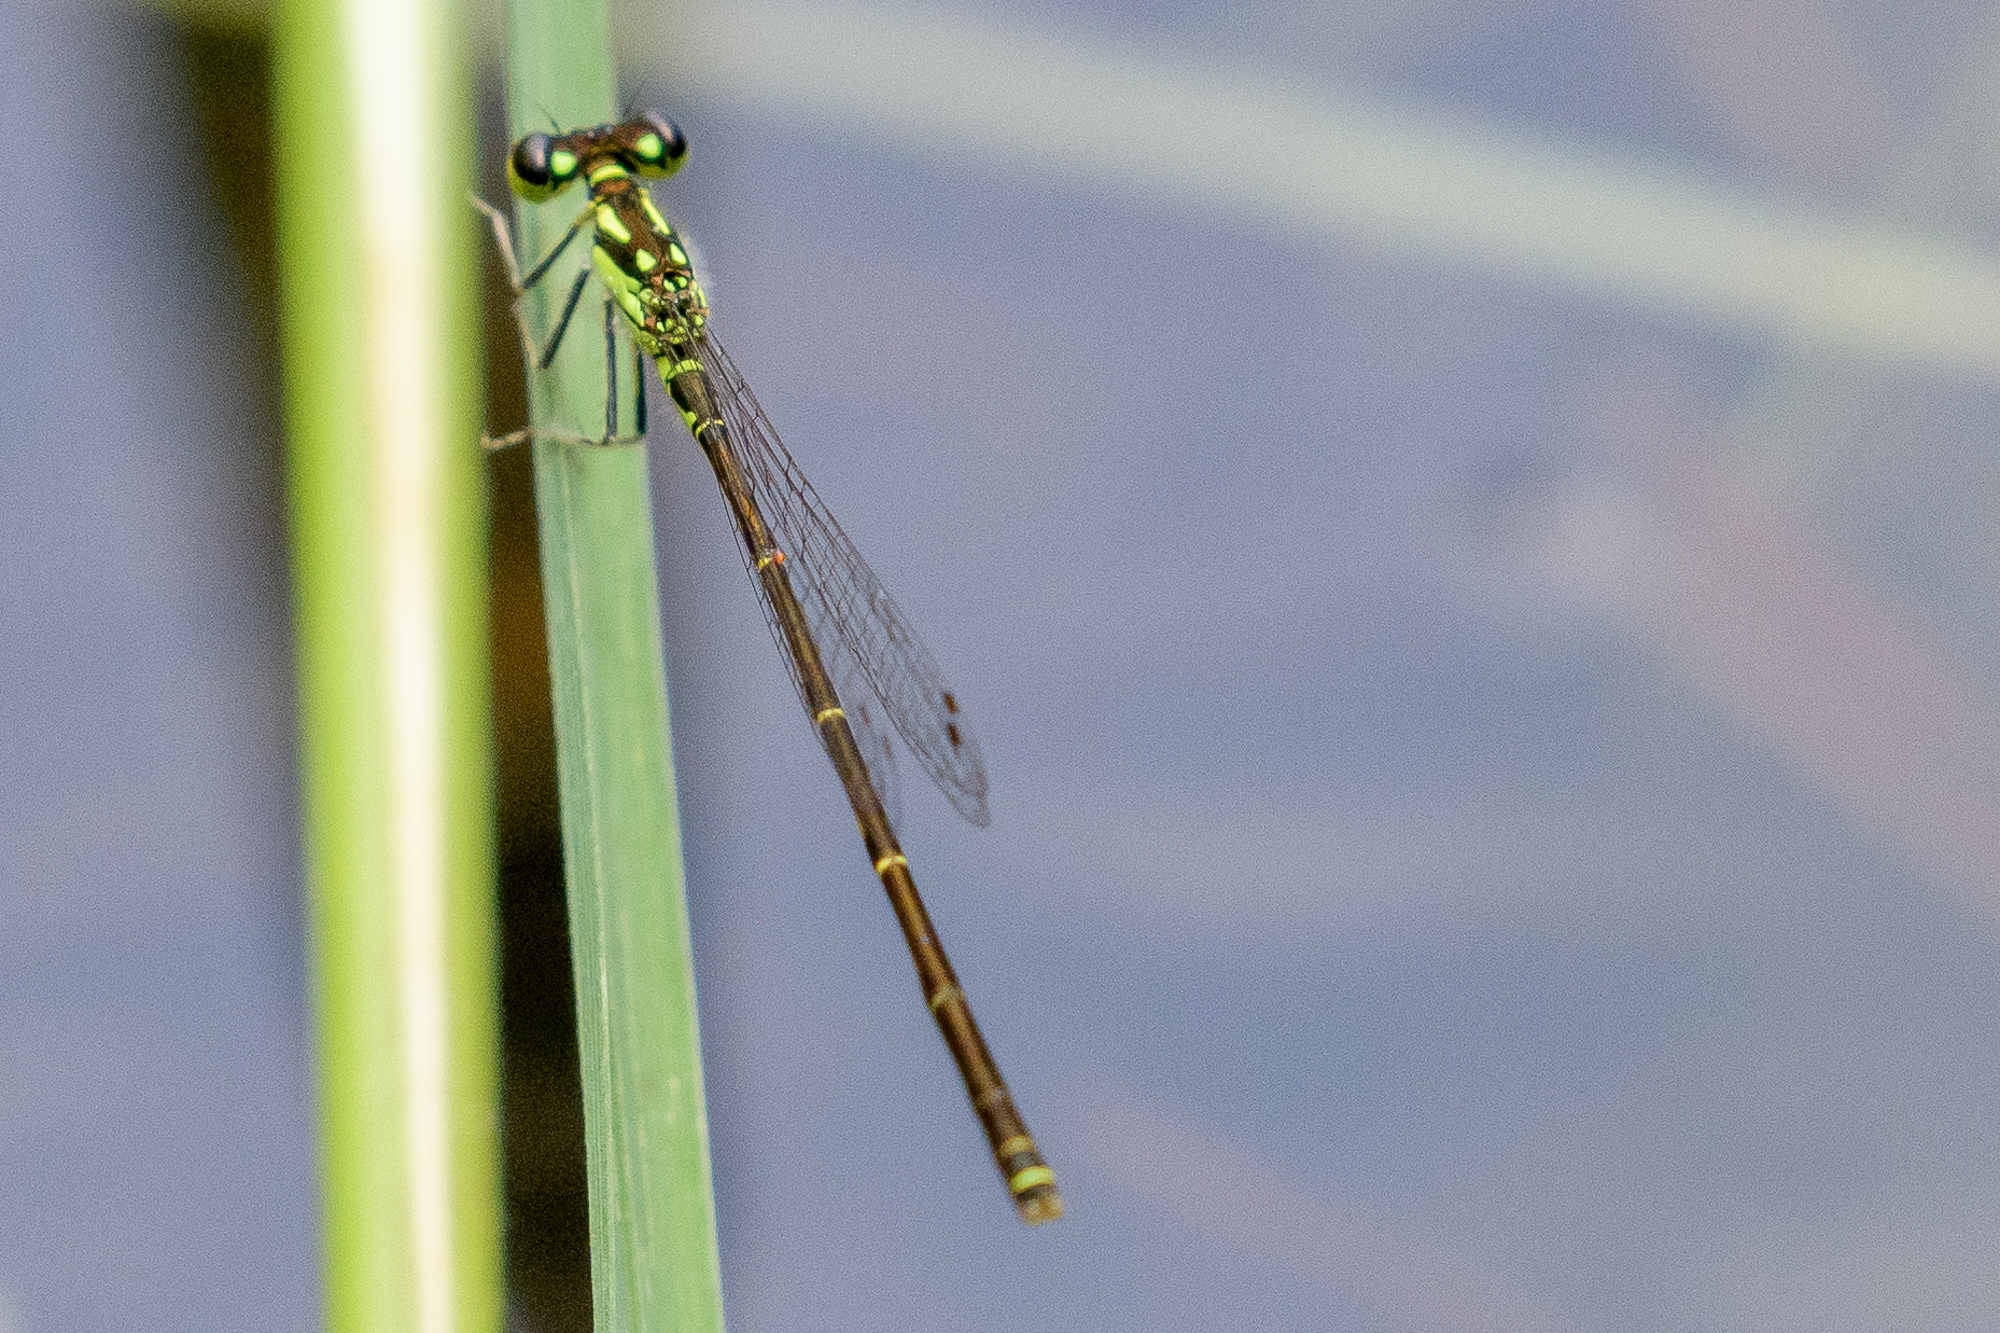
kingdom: Animalia
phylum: Arthropoda
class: Insecta
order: Odonata
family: Coenagrionidae
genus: Ischnura
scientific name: Ischnura posita
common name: Fragile forktail
